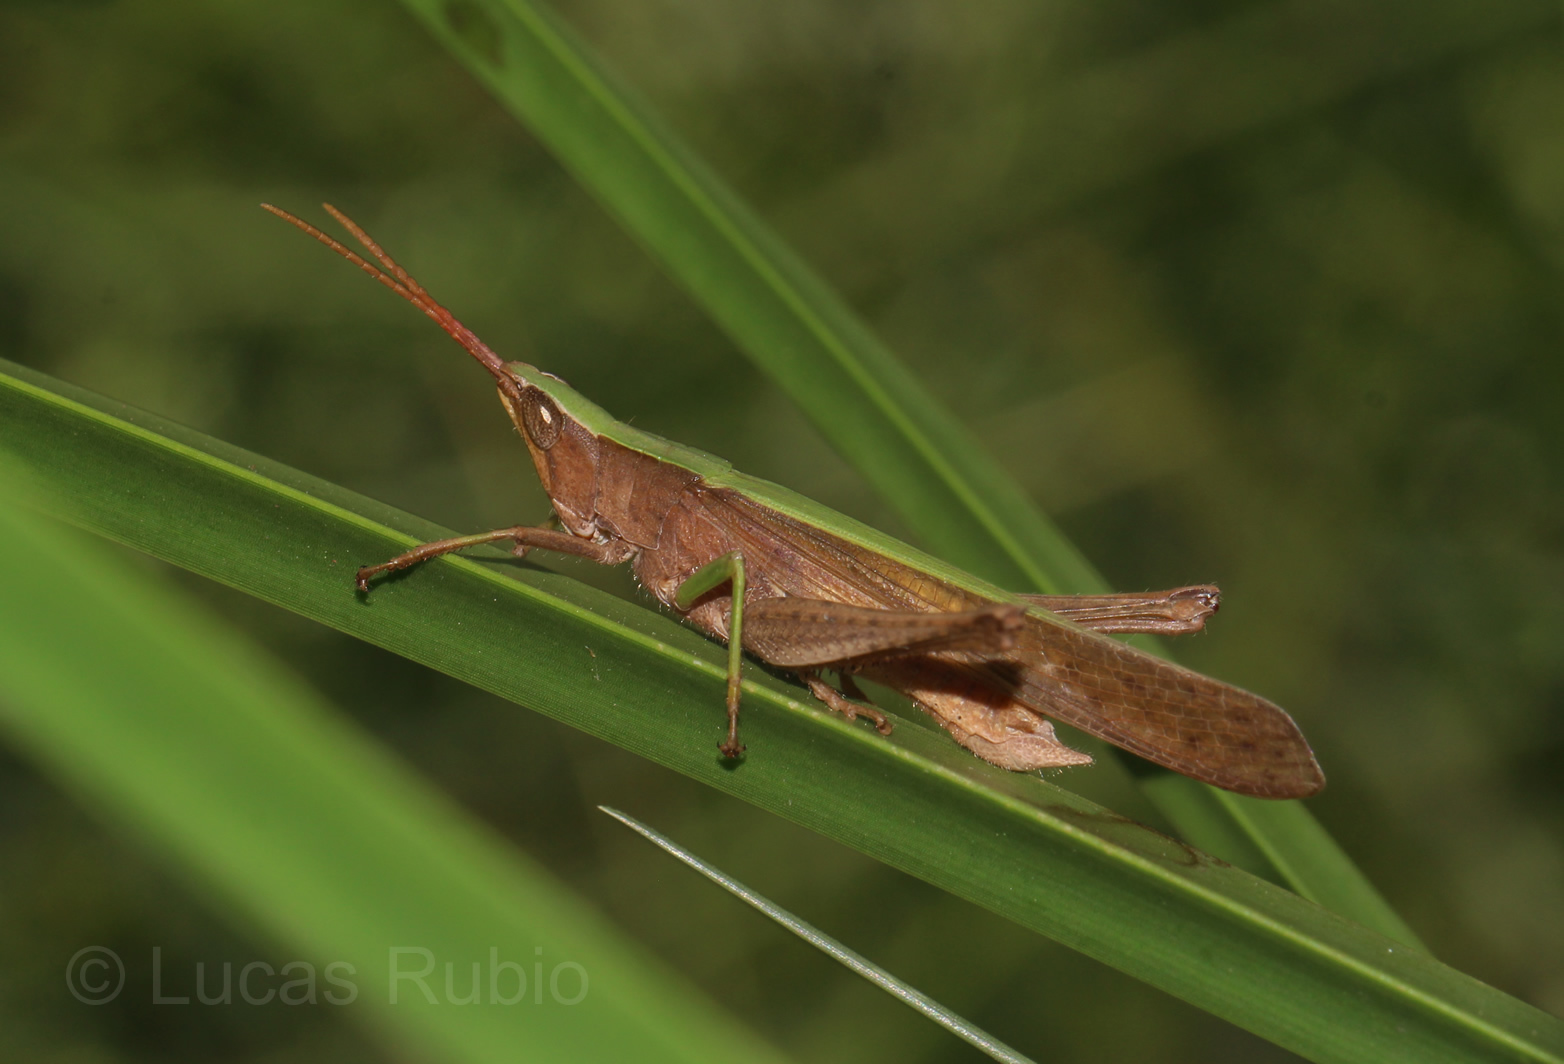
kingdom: Animalia
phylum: Arthropoda
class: Insecta
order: Orthoptera
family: Acrididae
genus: Metaleptea
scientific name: Metaleptea adspersa
